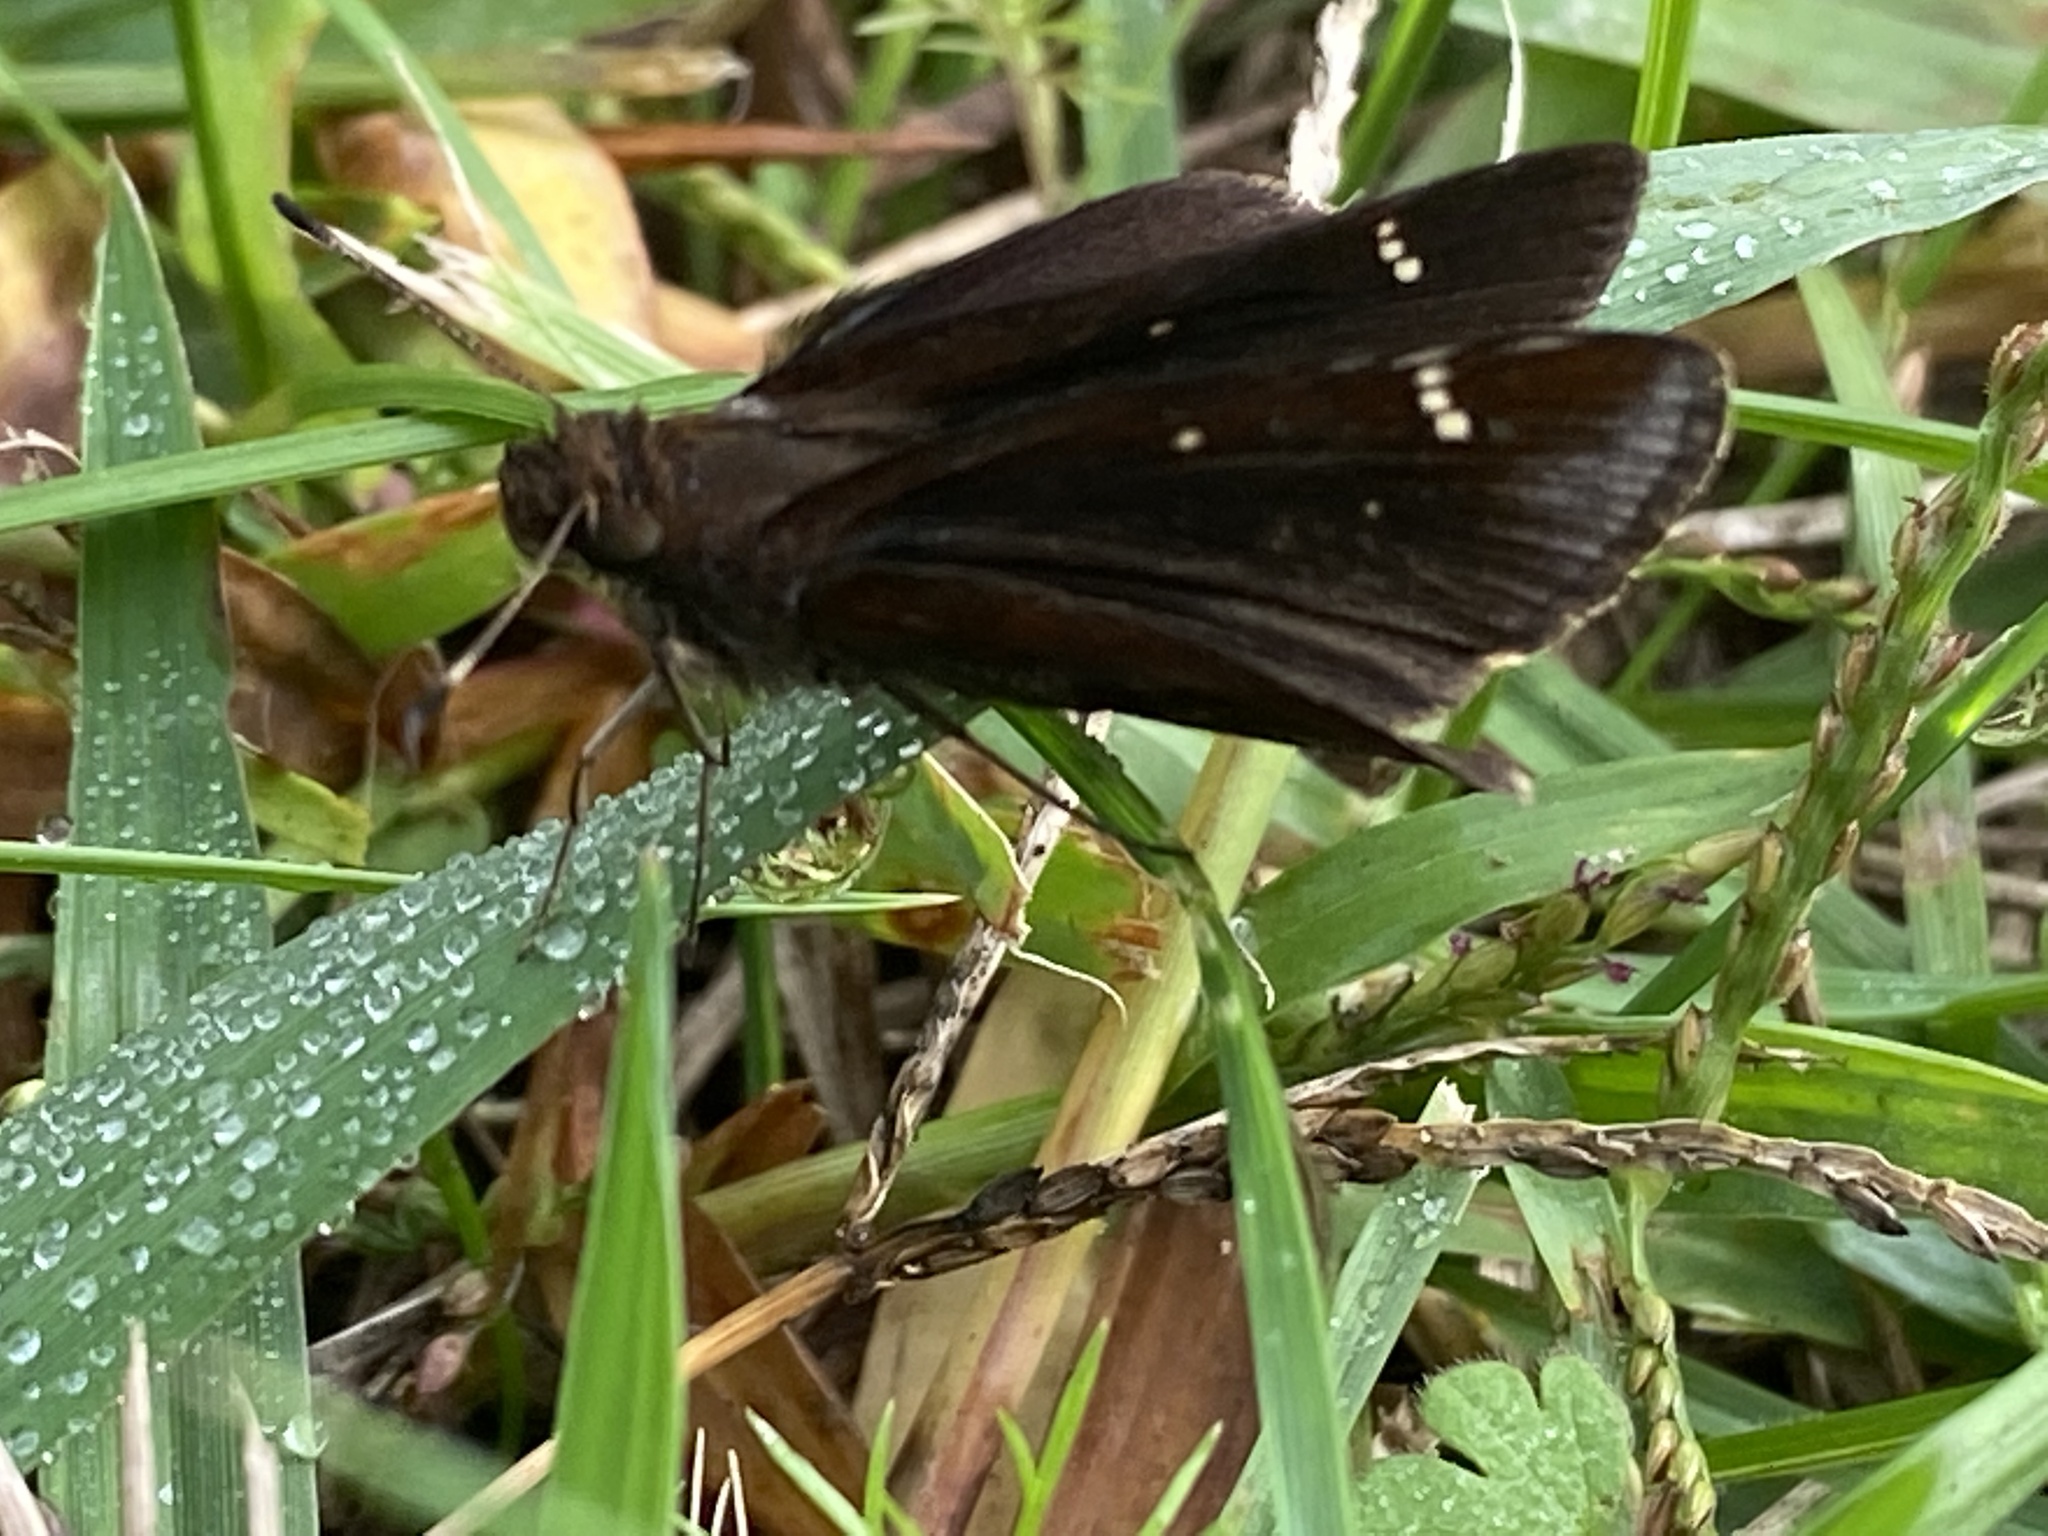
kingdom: Animalia
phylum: Arthropoda
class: Insecta
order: Lepidoptera
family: Hesperiidae
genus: Lerema
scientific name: Lerema accius
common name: Clouded skipper
